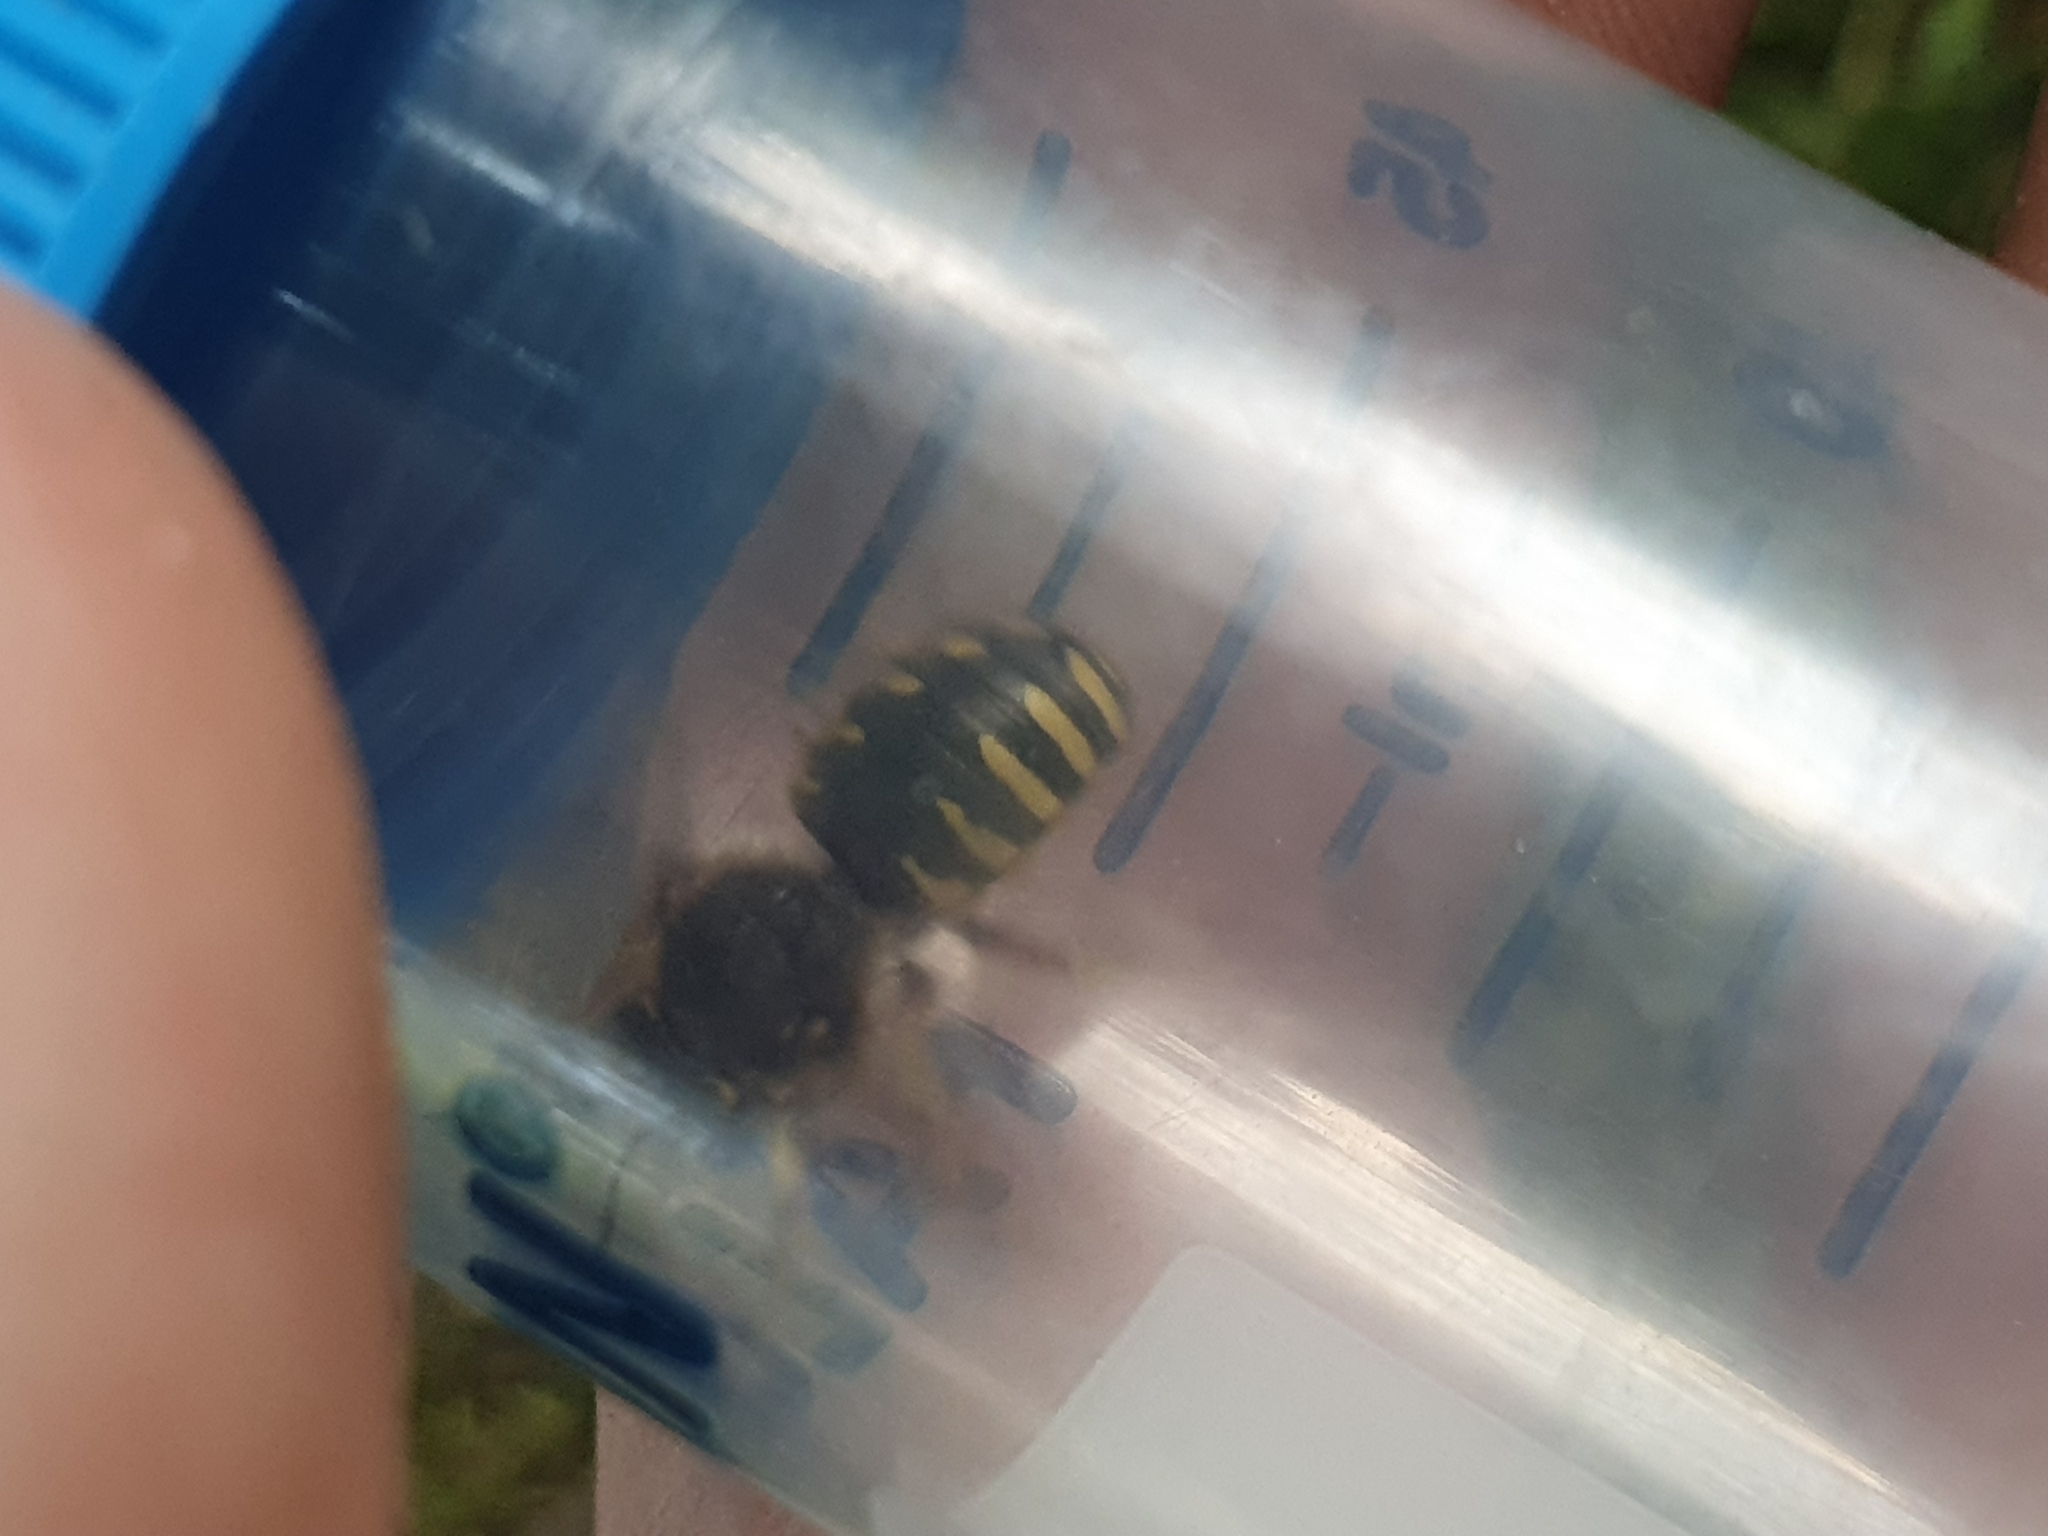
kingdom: Animalia
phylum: Arthropoda
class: Insecta
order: Hymenoptera
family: Megachilidae
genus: Anthidium
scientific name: Anthidium manicatum
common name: Wool carder bee
